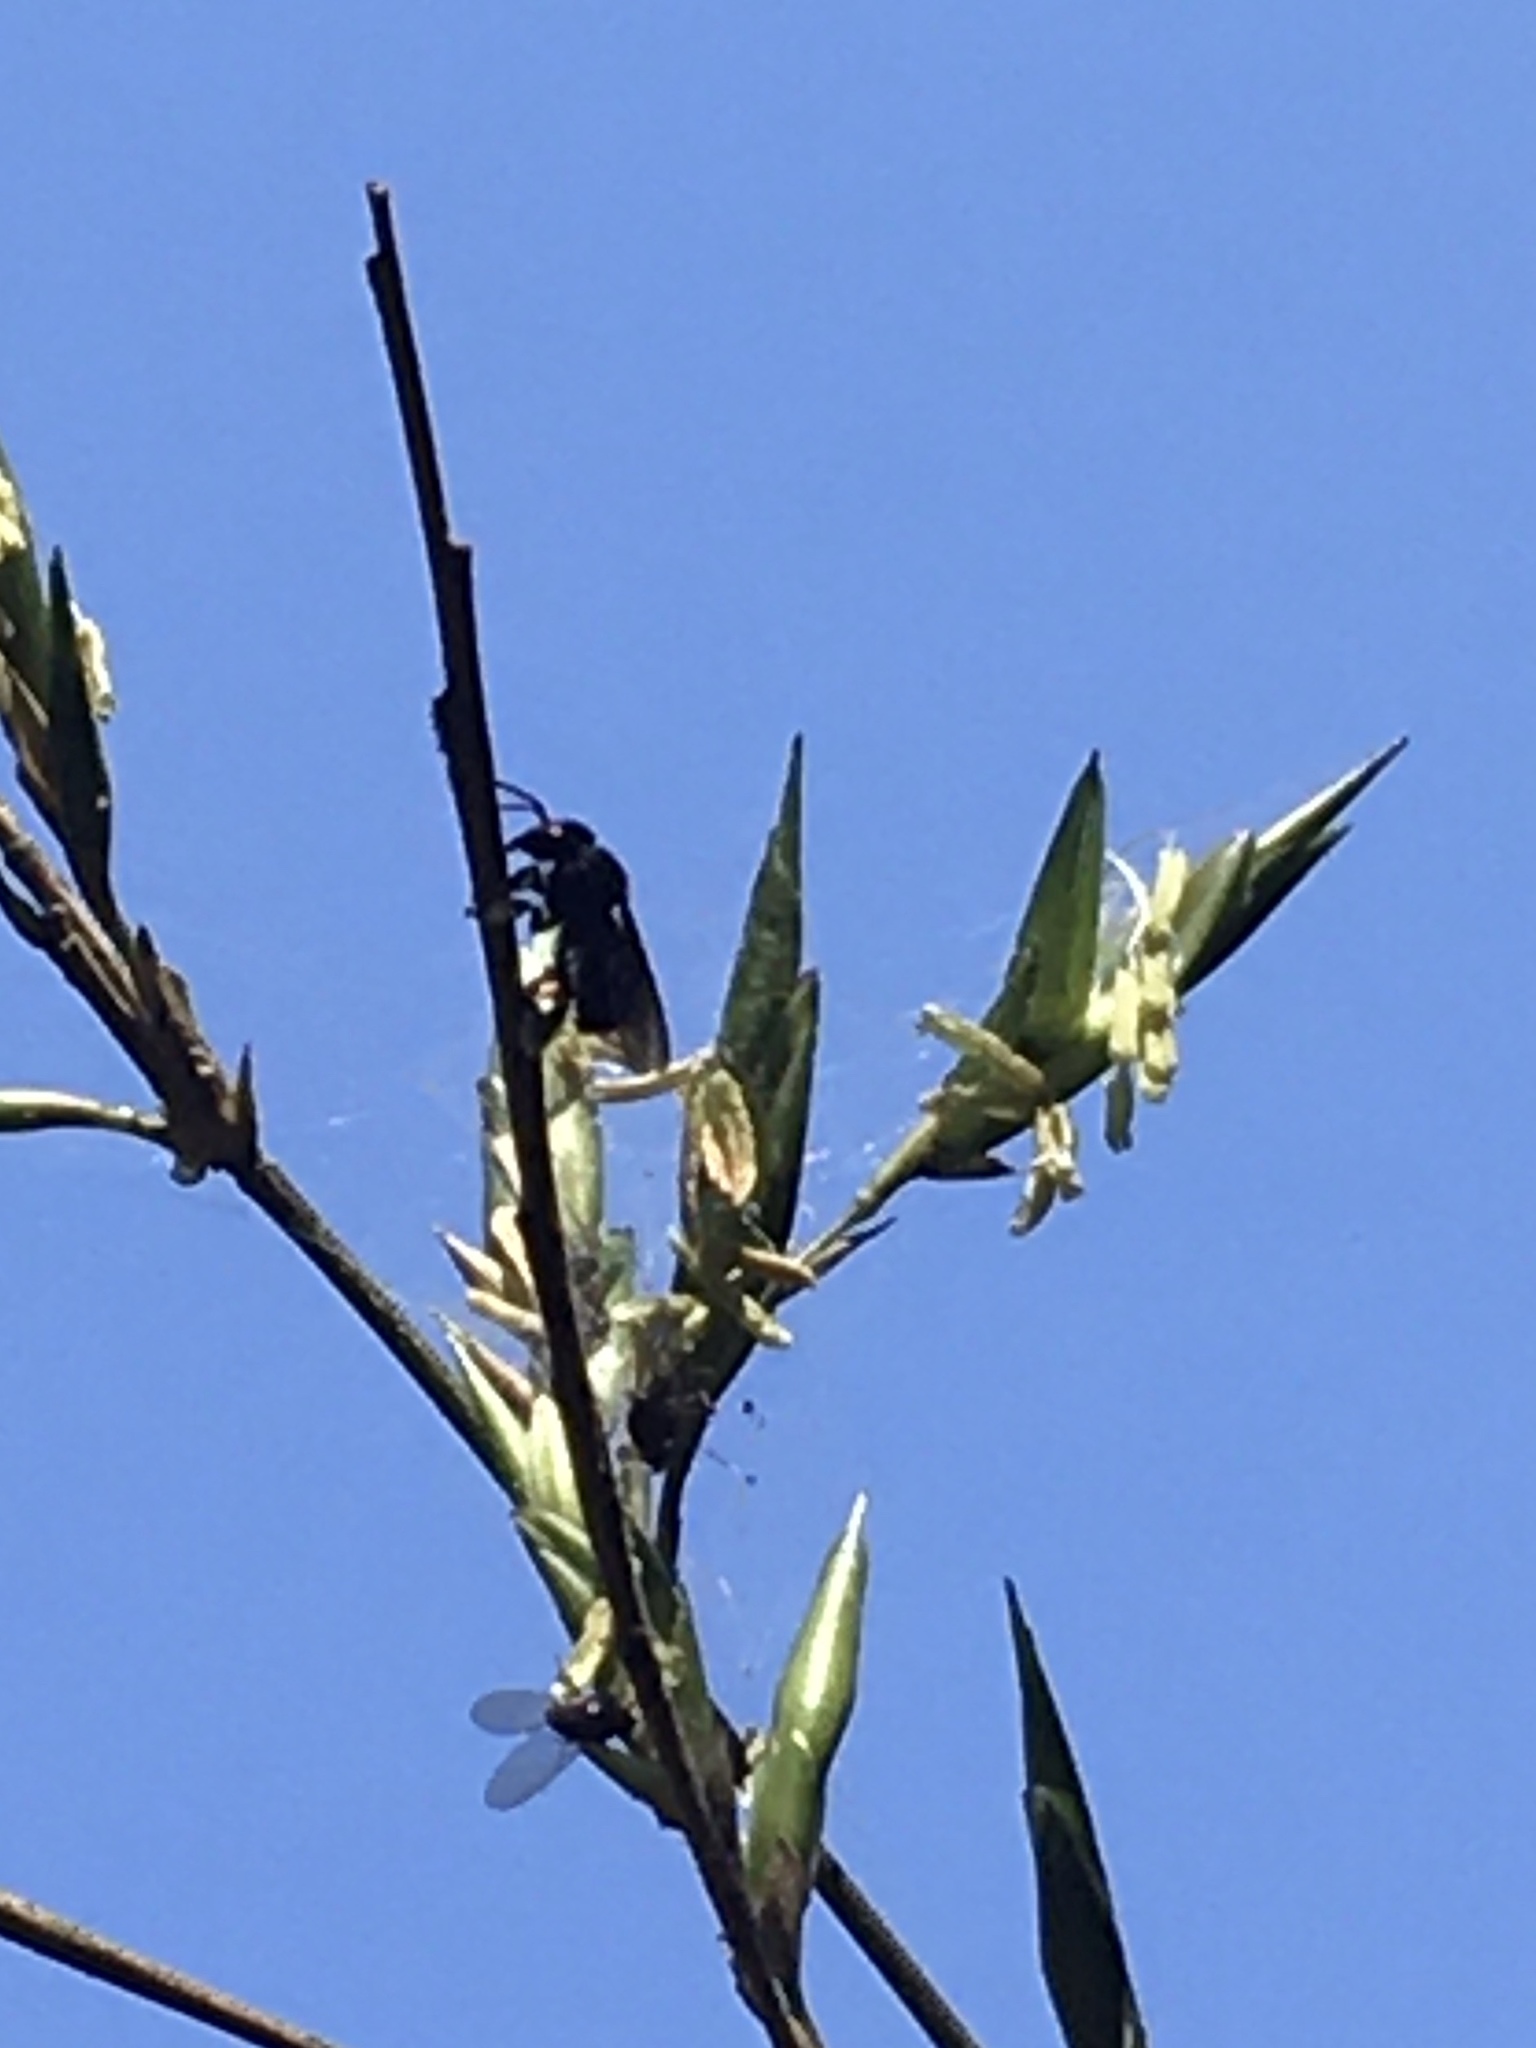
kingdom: Animalia
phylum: Arthropoda
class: Insecta
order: Hymenoptera
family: Apidae
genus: Trigona
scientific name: Trigona spinipes
